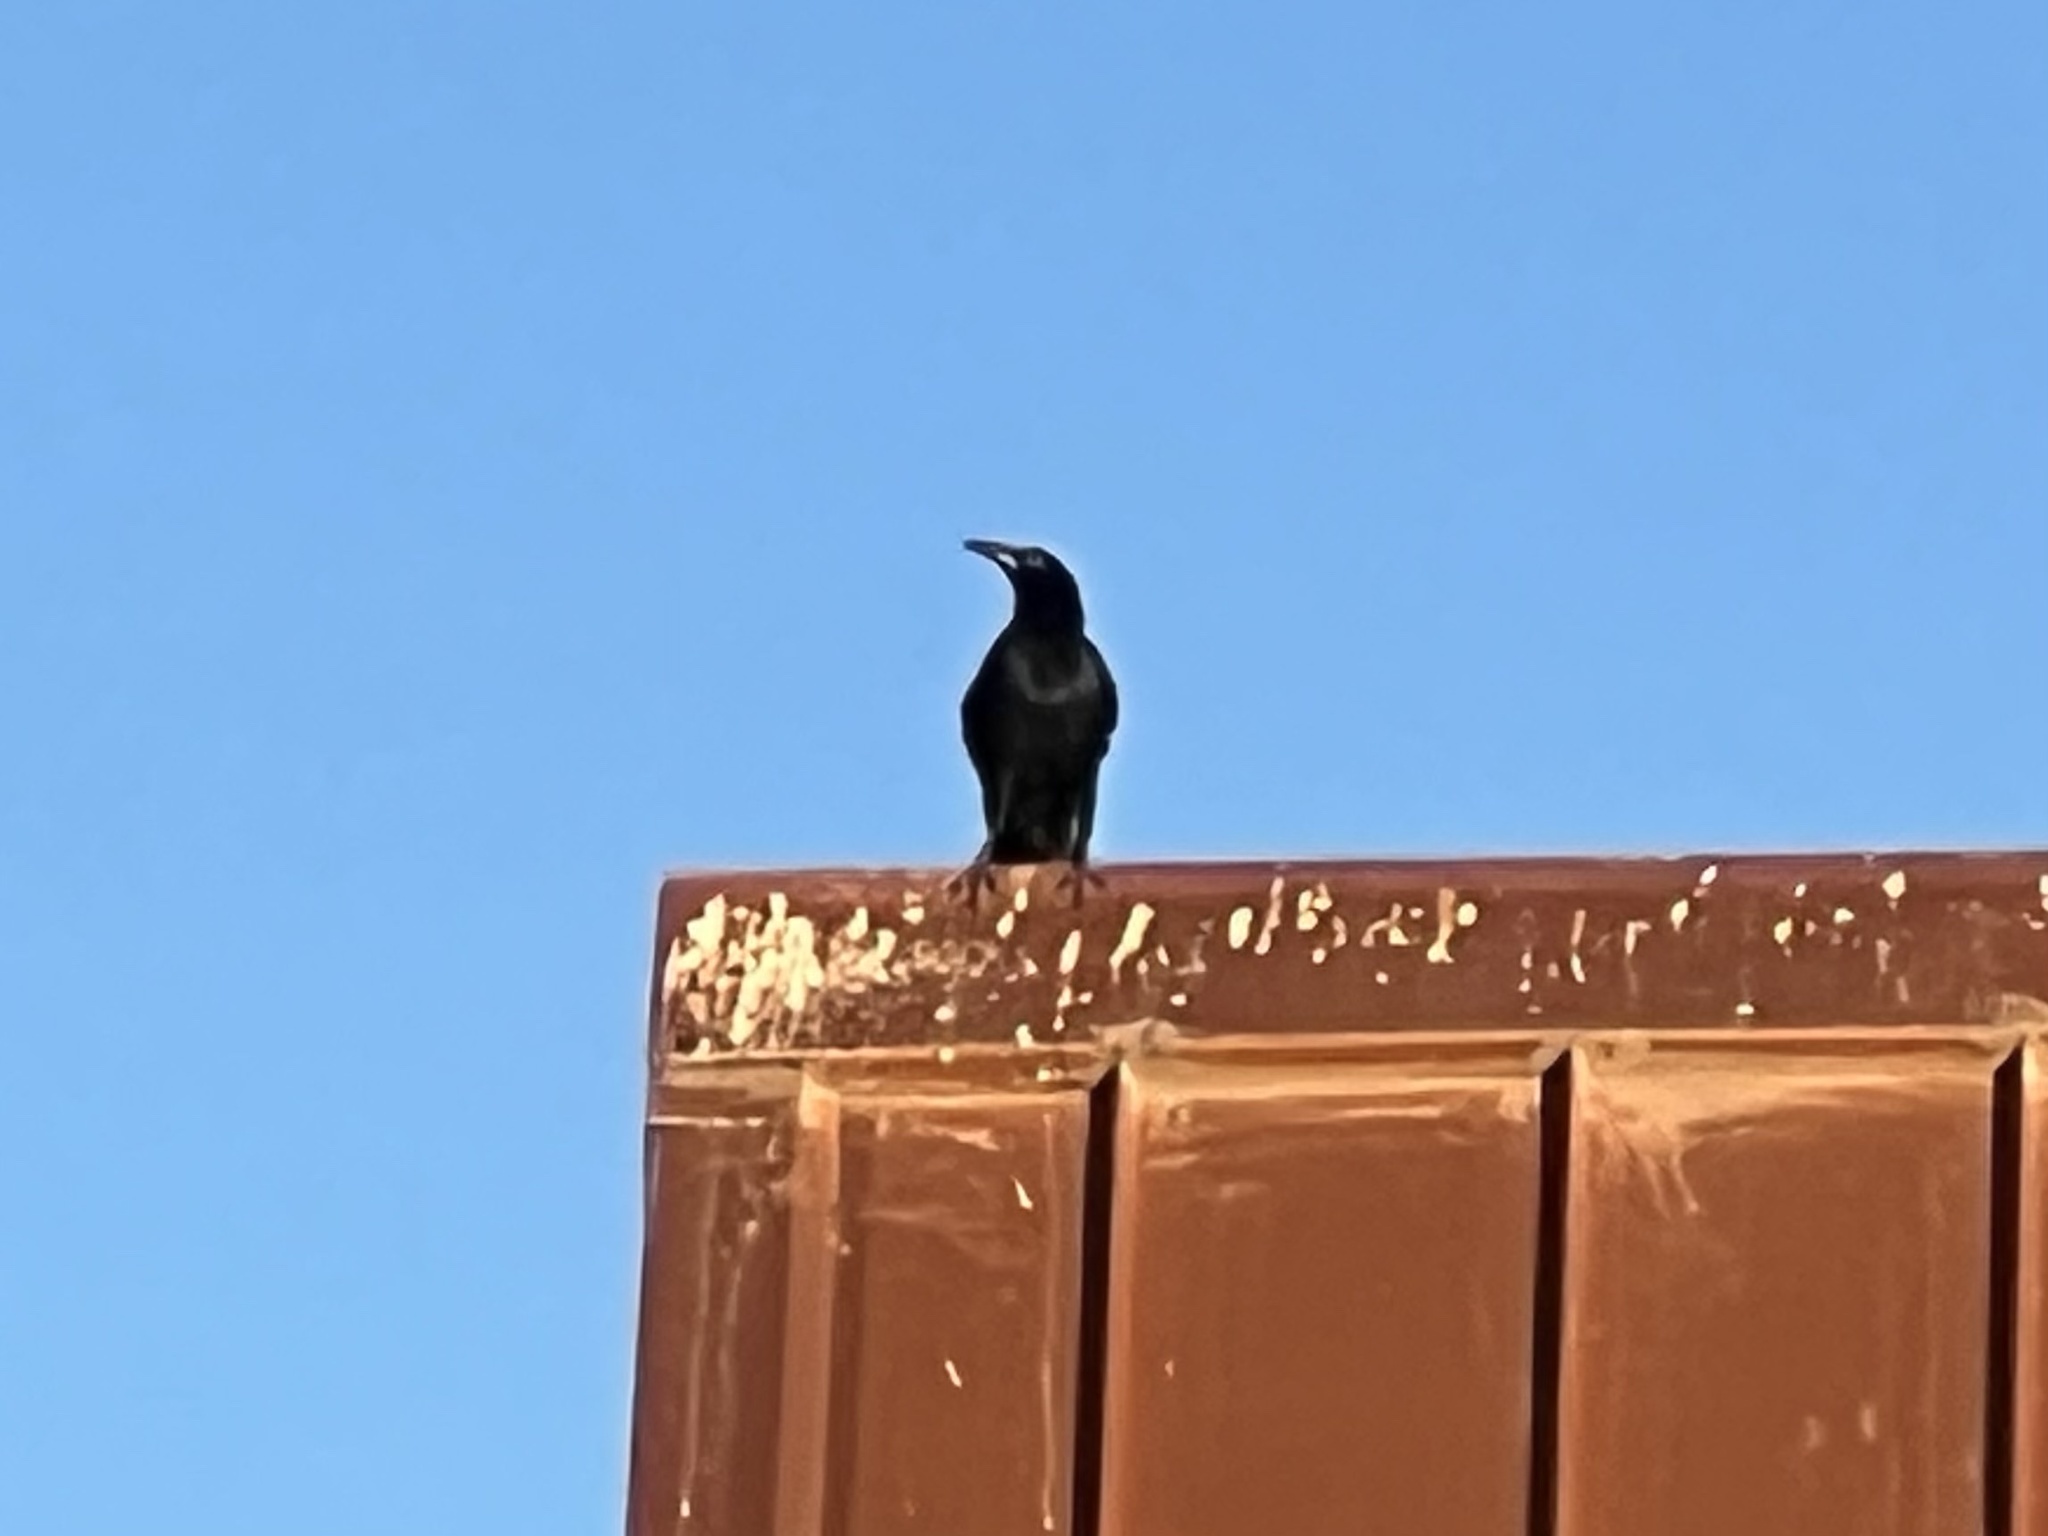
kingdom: Animalia
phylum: Chordata
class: Aves
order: Passeriformes
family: Icteridae
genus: Quiscalus
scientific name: Quiscalus mexicanus
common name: Great-tailed grackle
